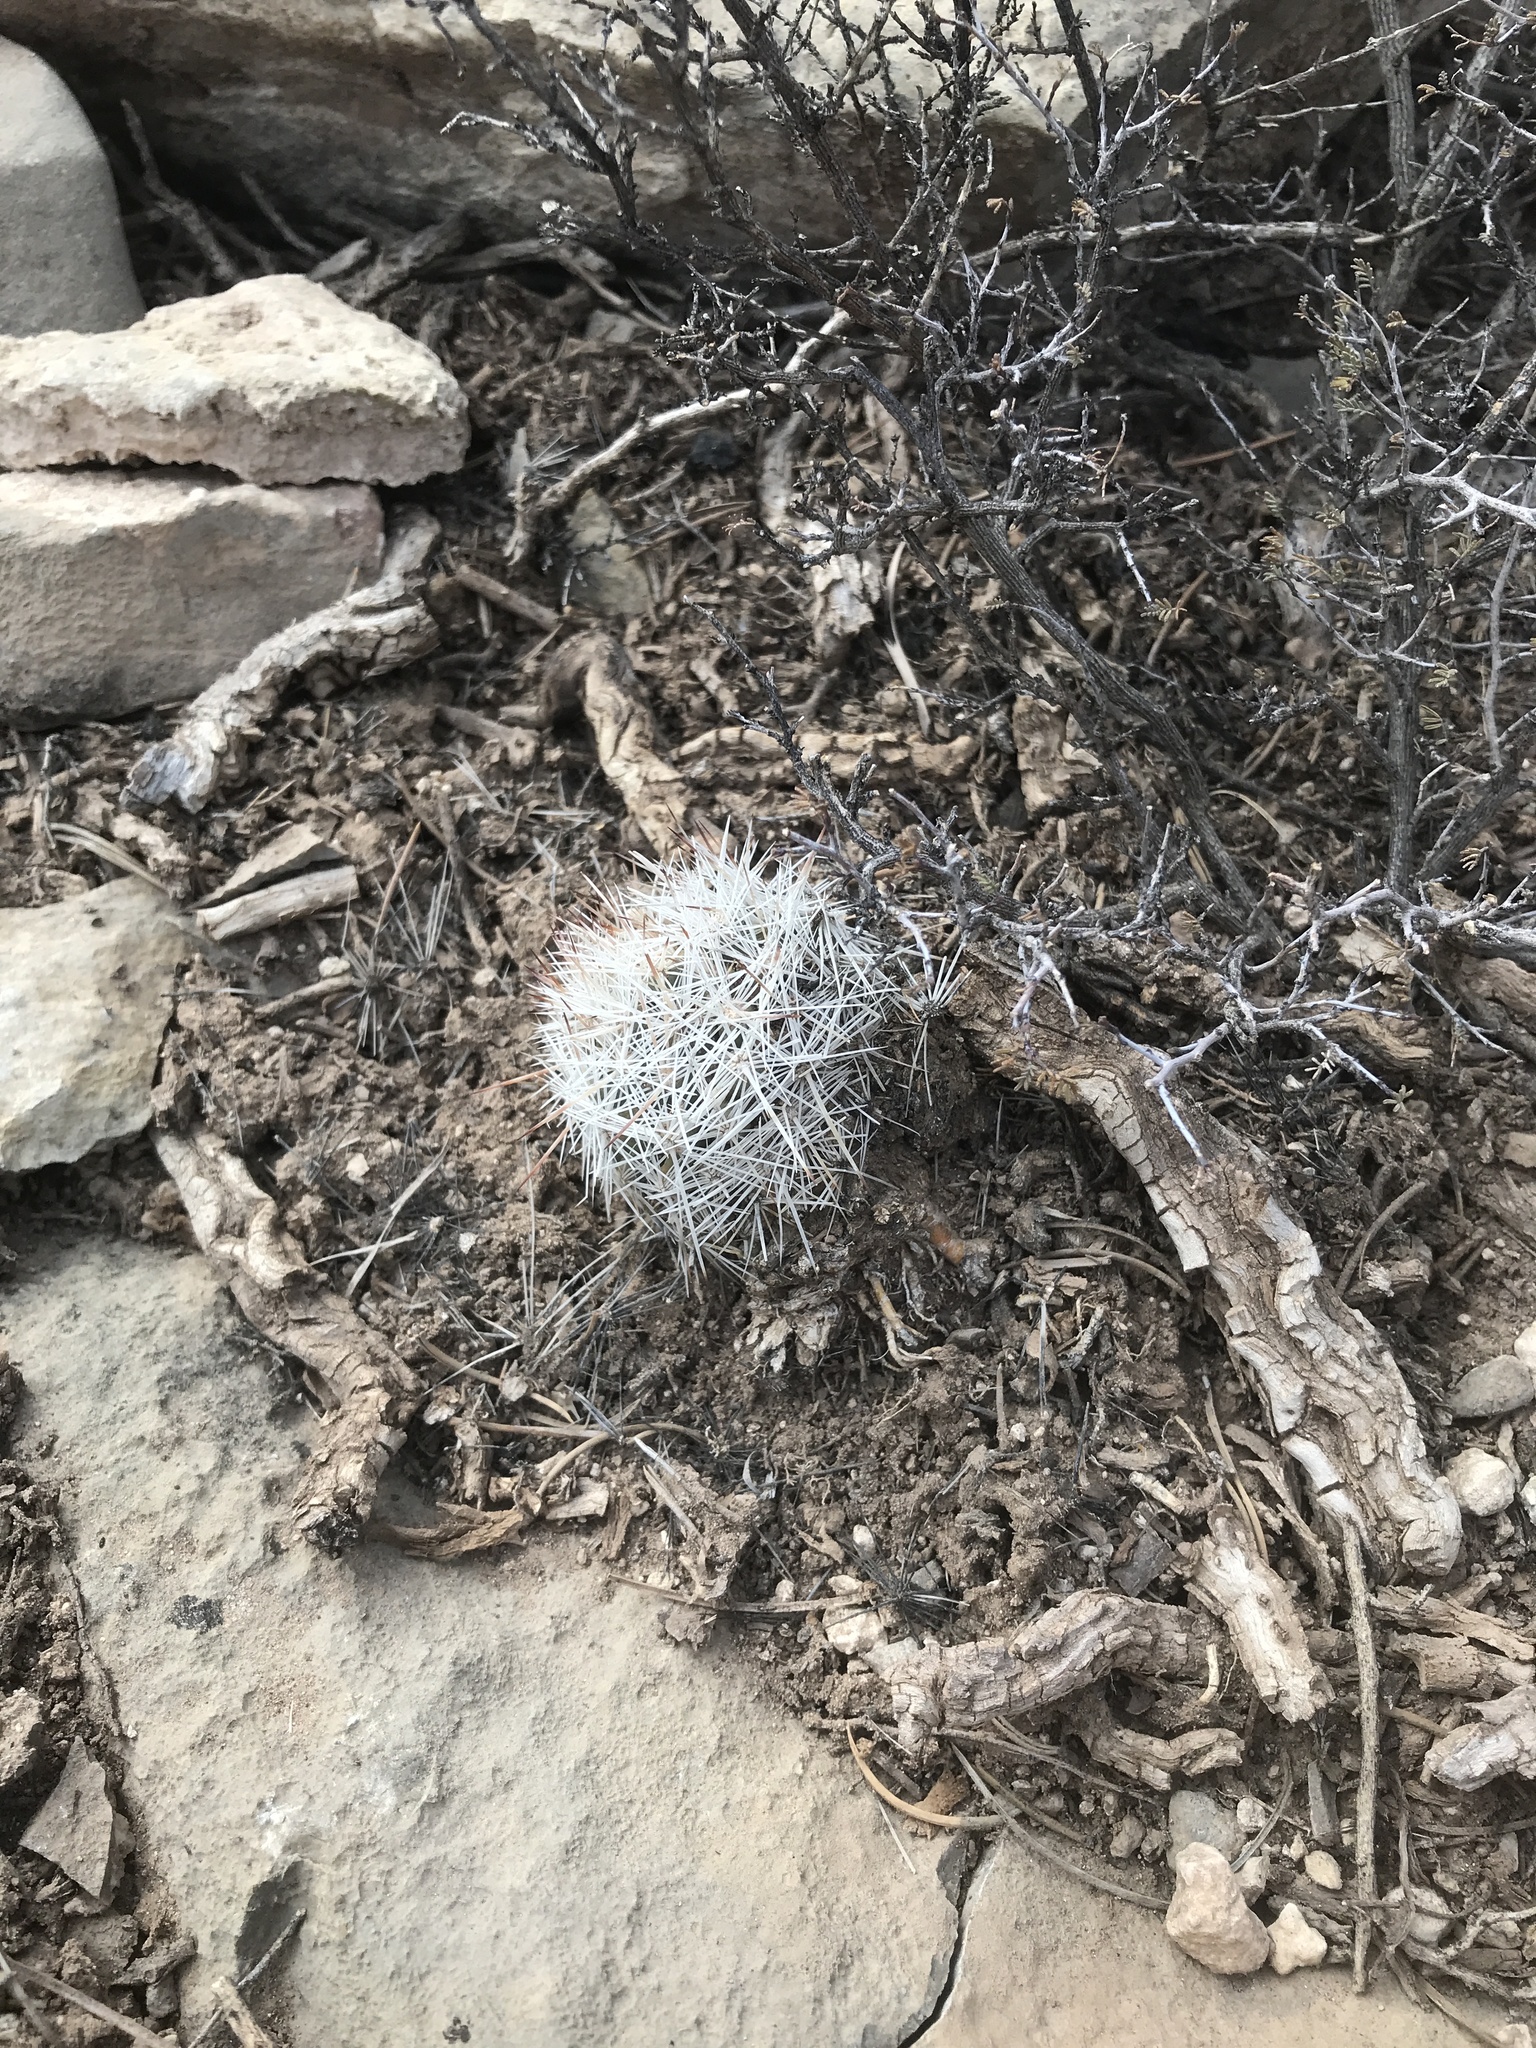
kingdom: Plantae
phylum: Tracheophyta
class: Magnoliopsida
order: Caryophyllales
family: Cactaceae
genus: Pelecyphora
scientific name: Pelecyphora vivipara
